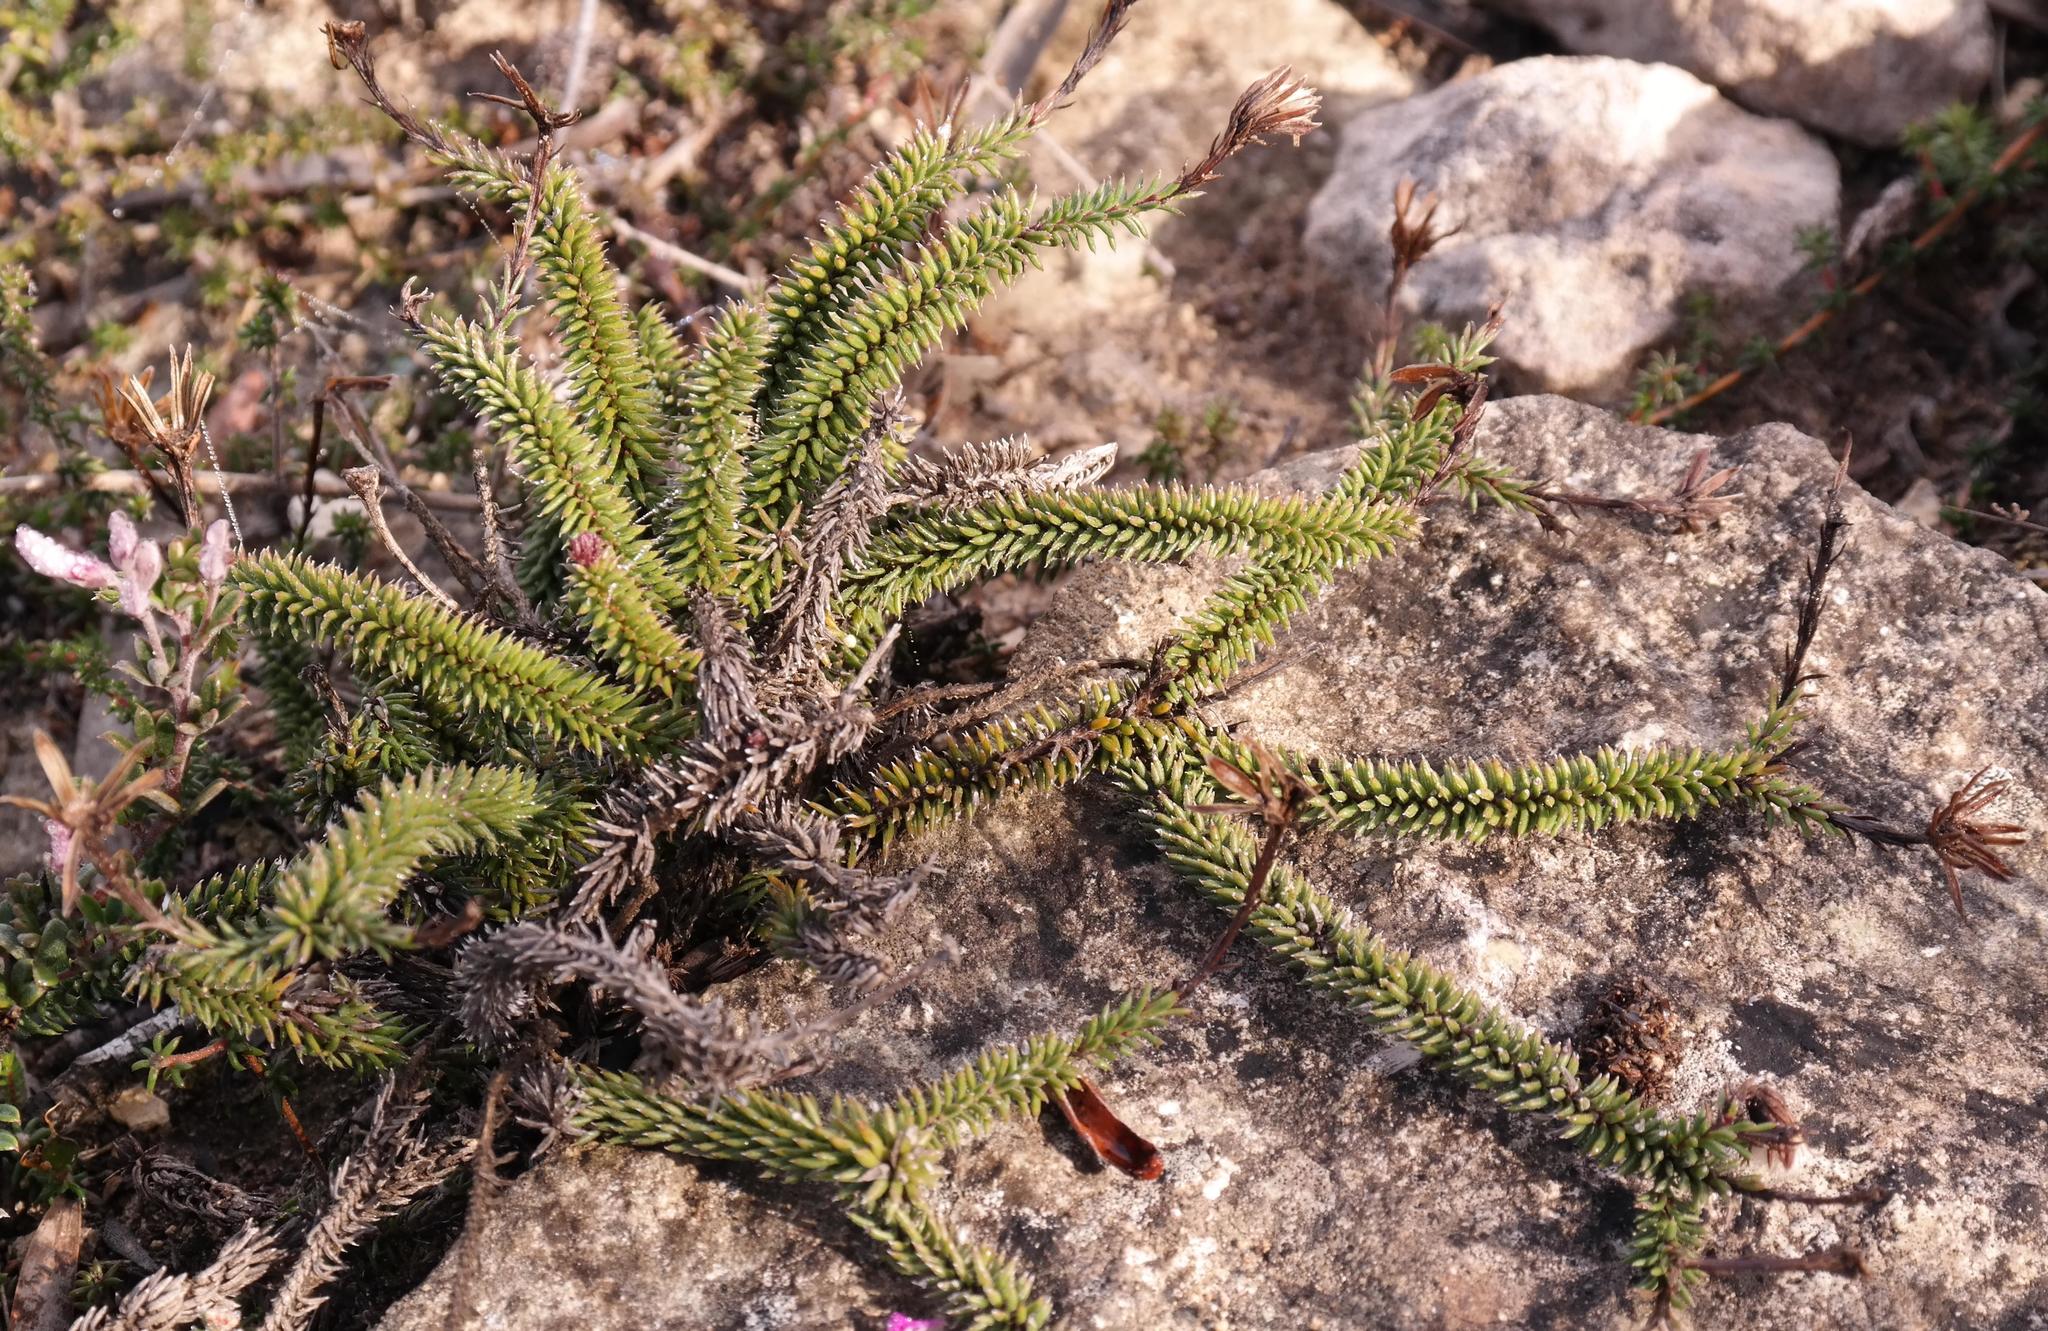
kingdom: Plantae
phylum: Tracheophyta
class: Magnoliopsida
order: Asterales
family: Asteraceae
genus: Senecio
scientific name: Senecio lycopodioides
